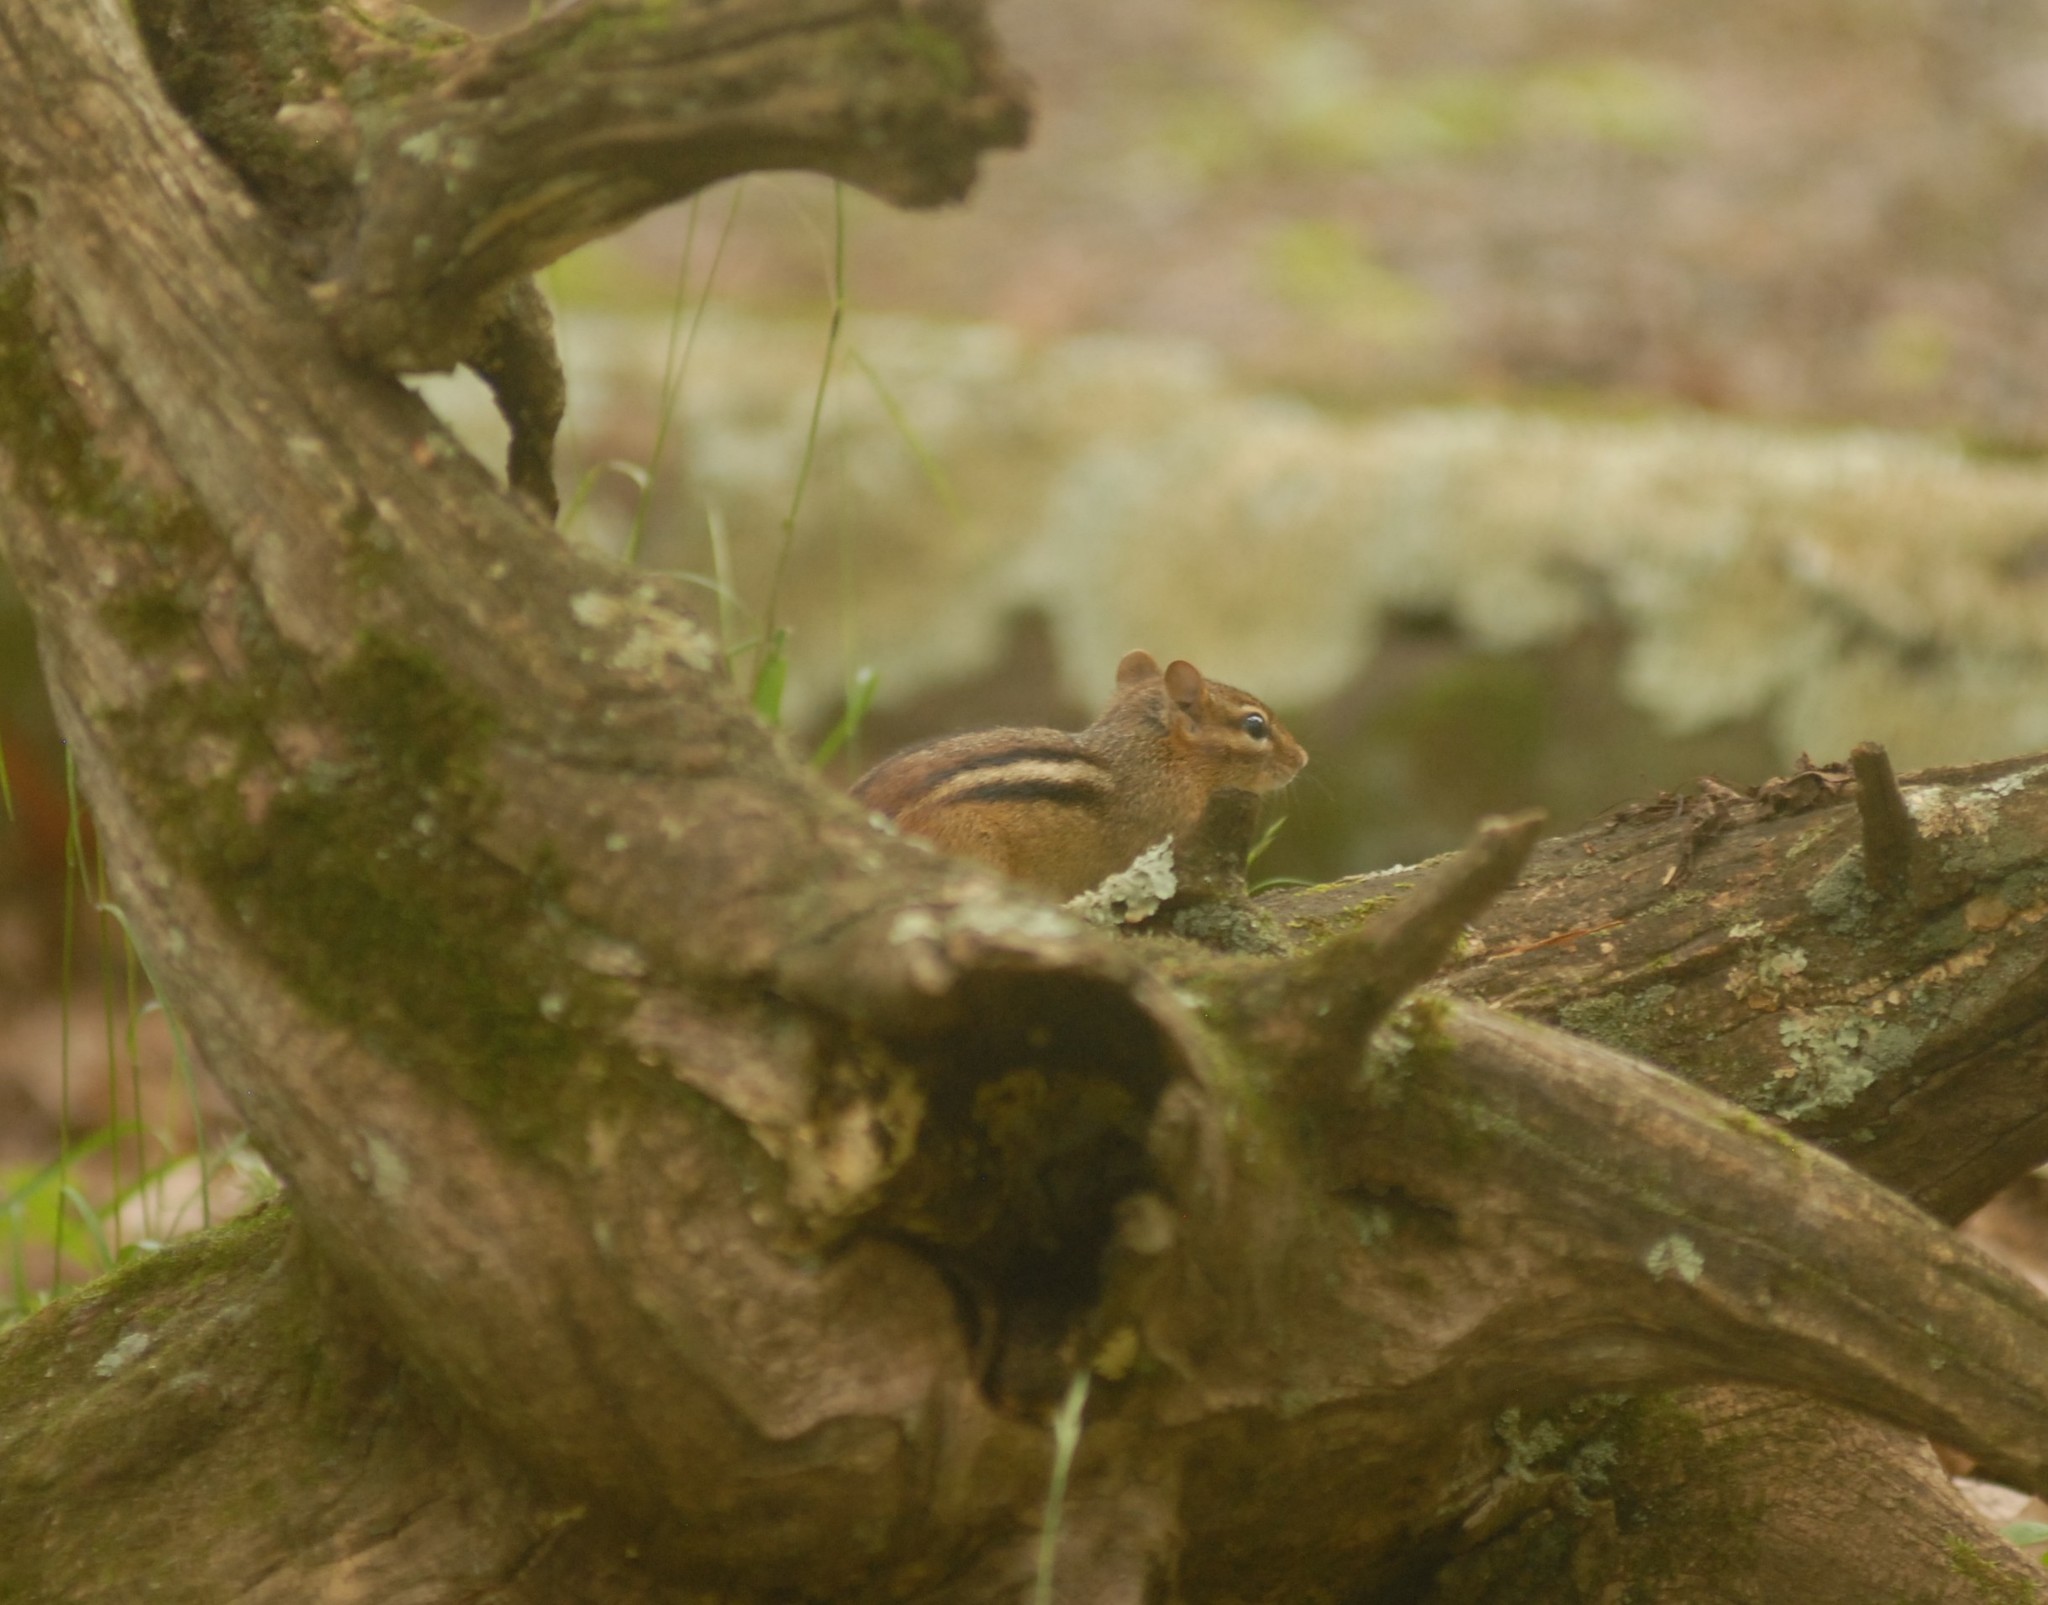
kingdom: Animalia
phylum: Chordata
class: Mammalia
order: Rodentia
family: Sciuridae
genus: Tamias
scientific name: Tamias striatus
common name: Eastern chipmunk
